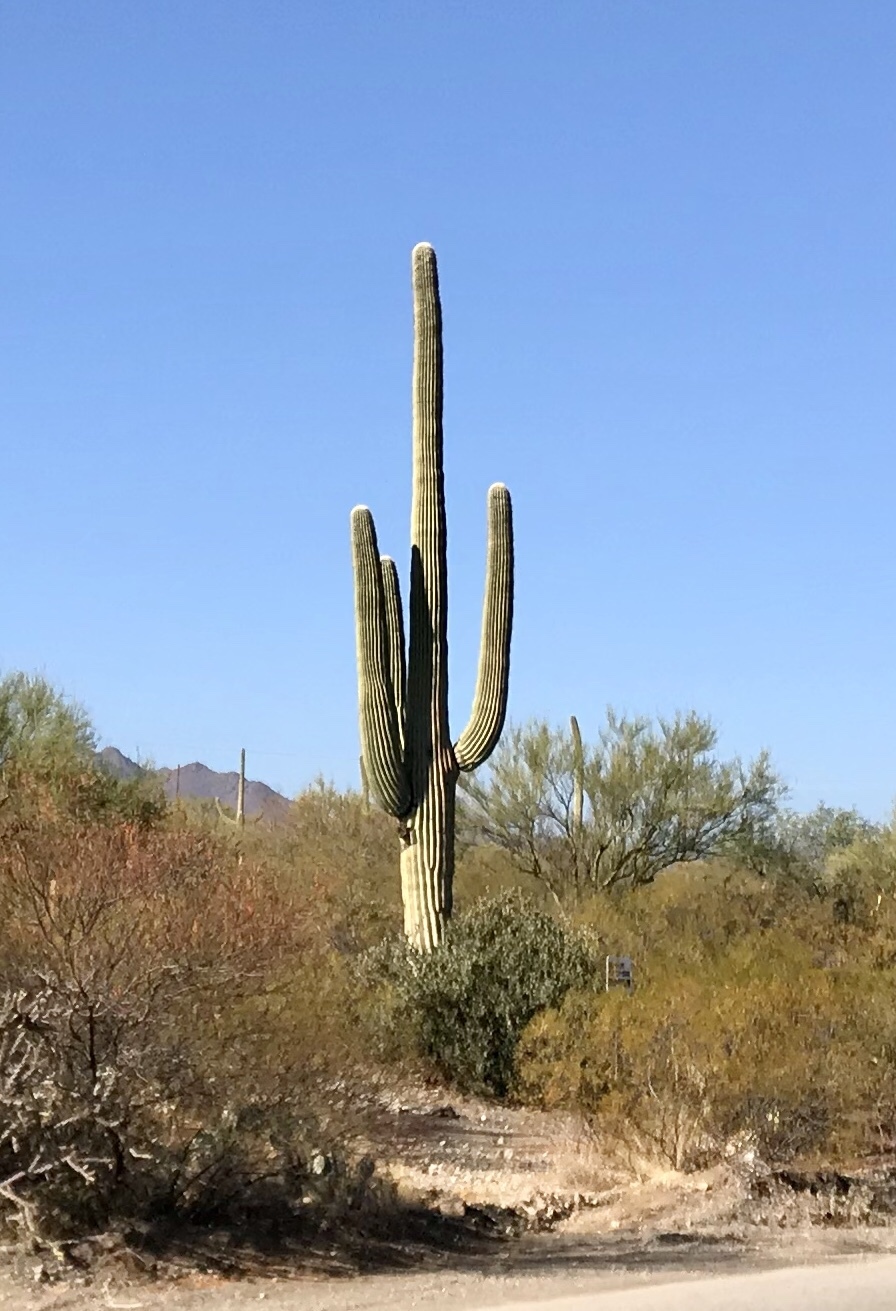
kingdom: Plantae
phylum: Tracheophyta
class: Magnoliopsida
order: Caryophyllales
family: Cactaceae
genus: Carnegiea
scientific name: Carnegiea gigantea
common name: Saguaro
